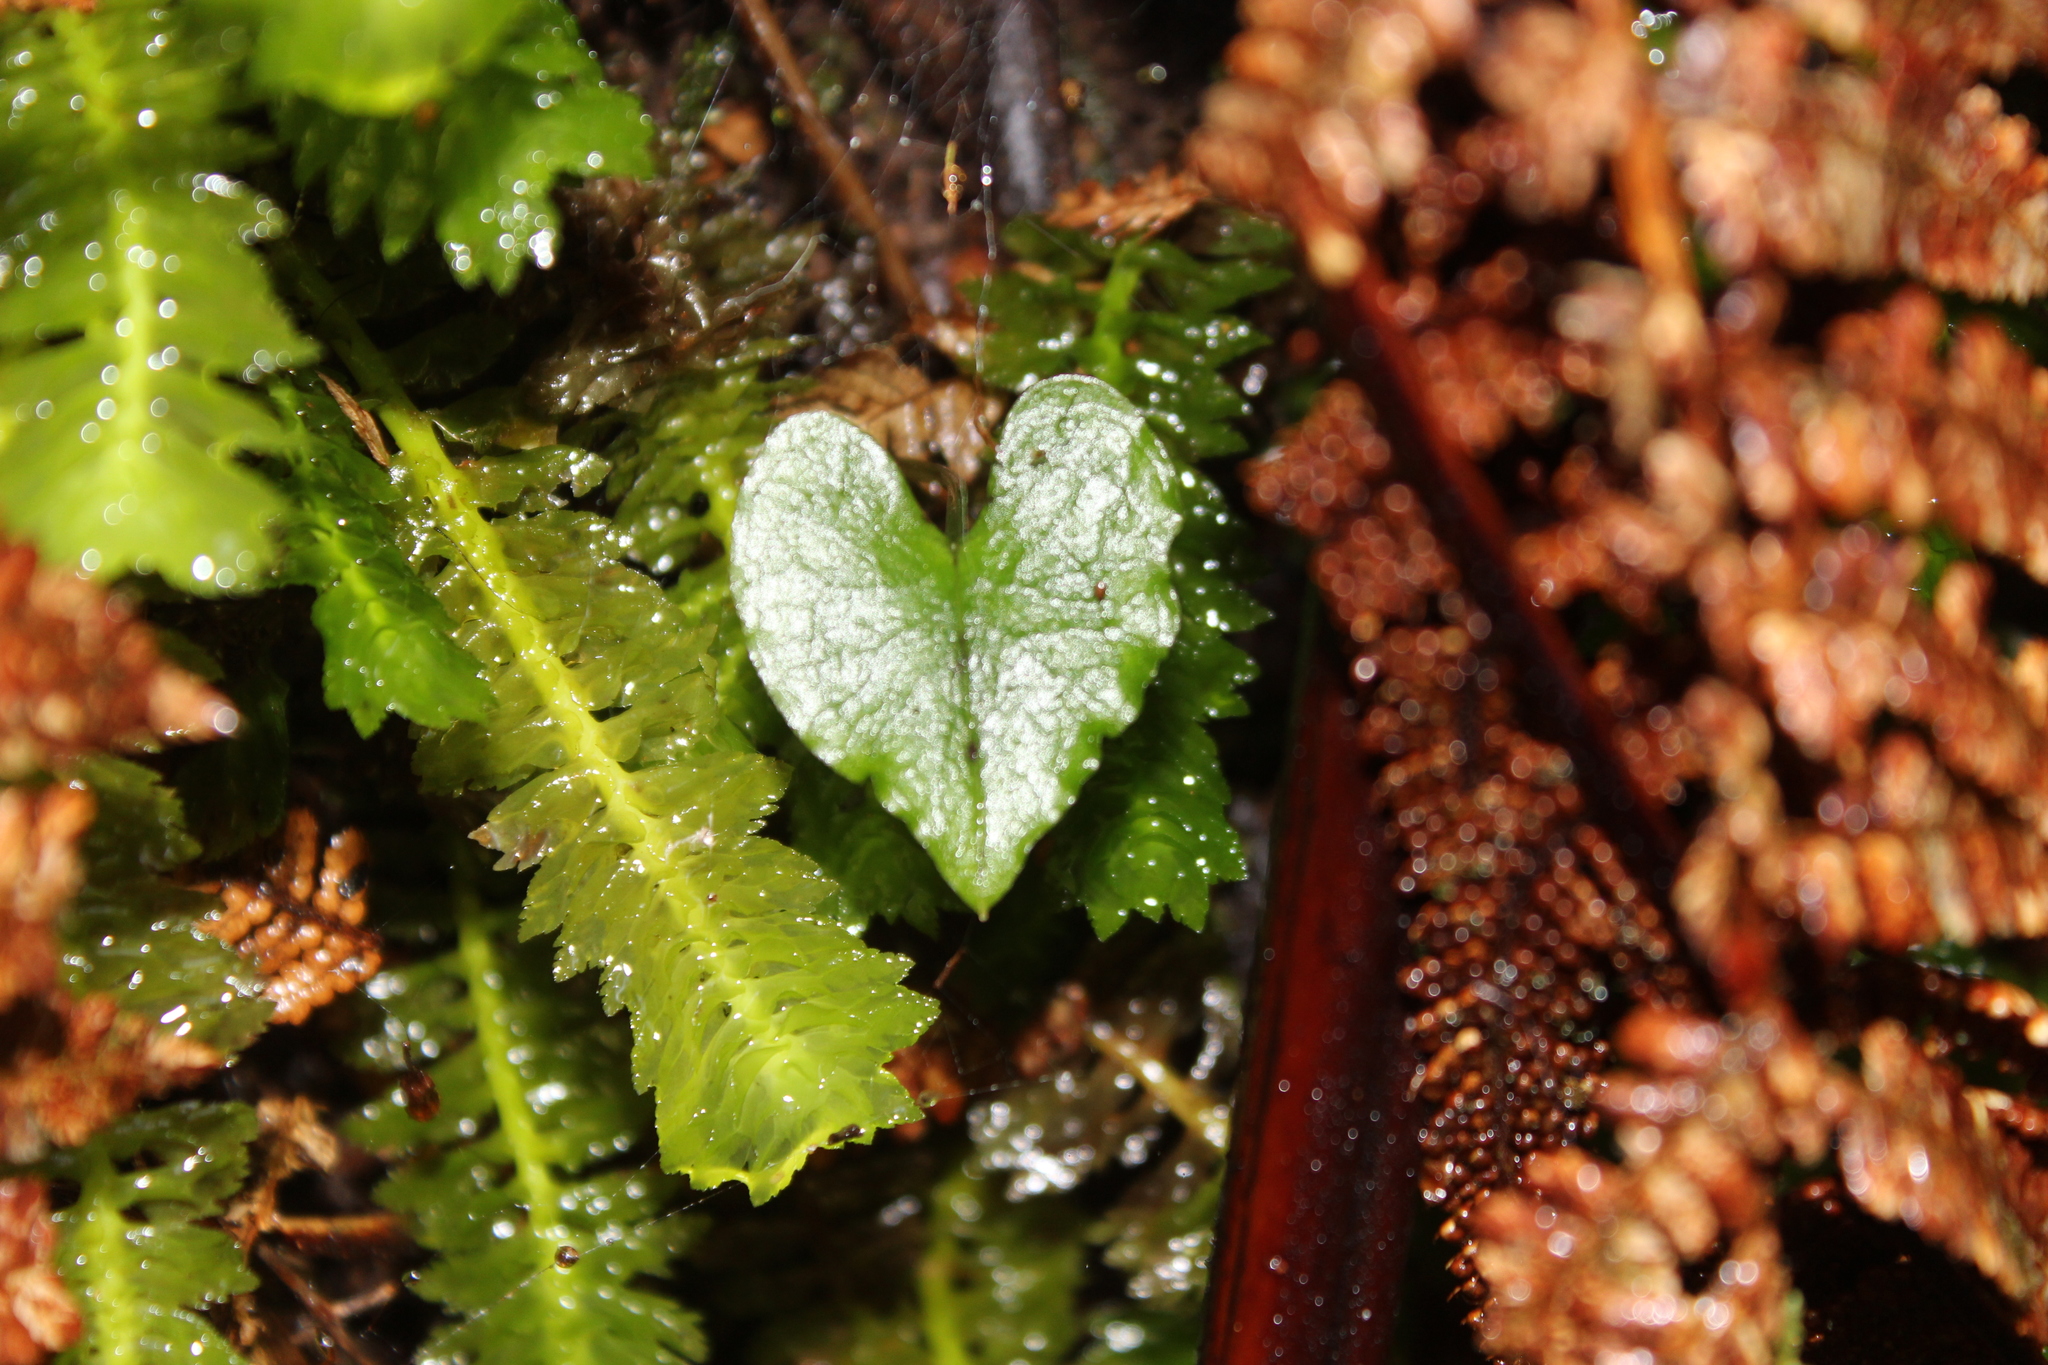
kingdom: Plantae
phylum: Tracheophyta
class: Liliopsida
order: Asparagales
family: Orchidaceae
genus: Corybas
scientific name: Corybas acuminatus
